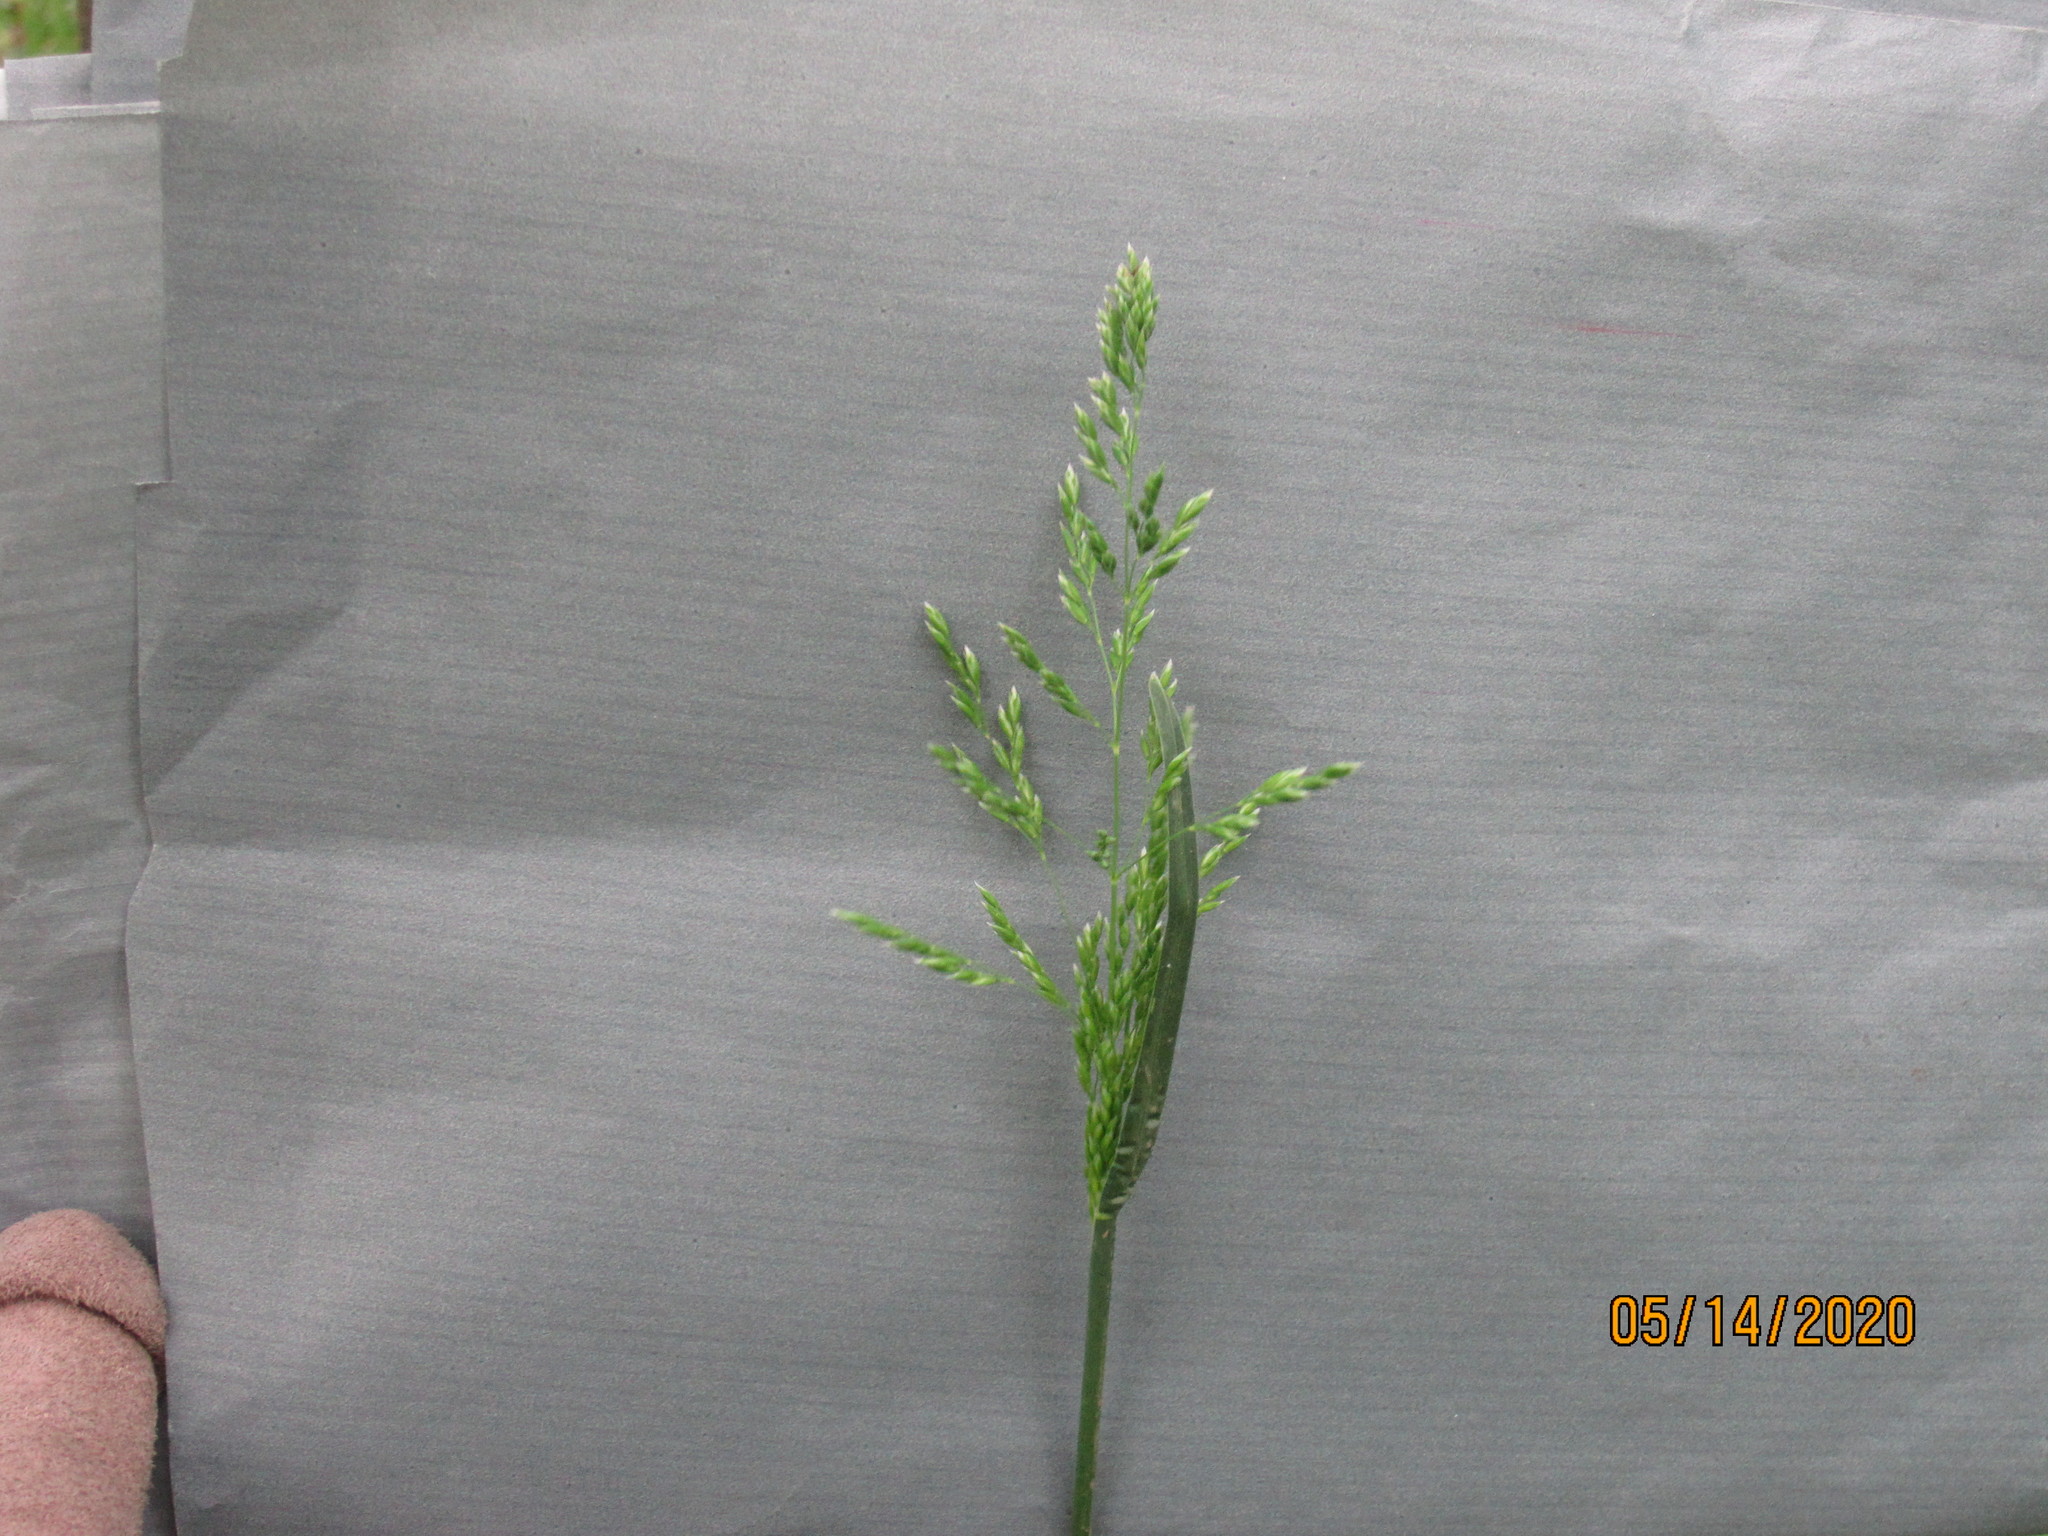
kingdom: Plantae
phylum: Tracheophyta
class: Liliopsida
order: Poales
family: Poaceae
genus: Poa
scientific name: Poa pratensis
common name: Kentucky bluegrass
